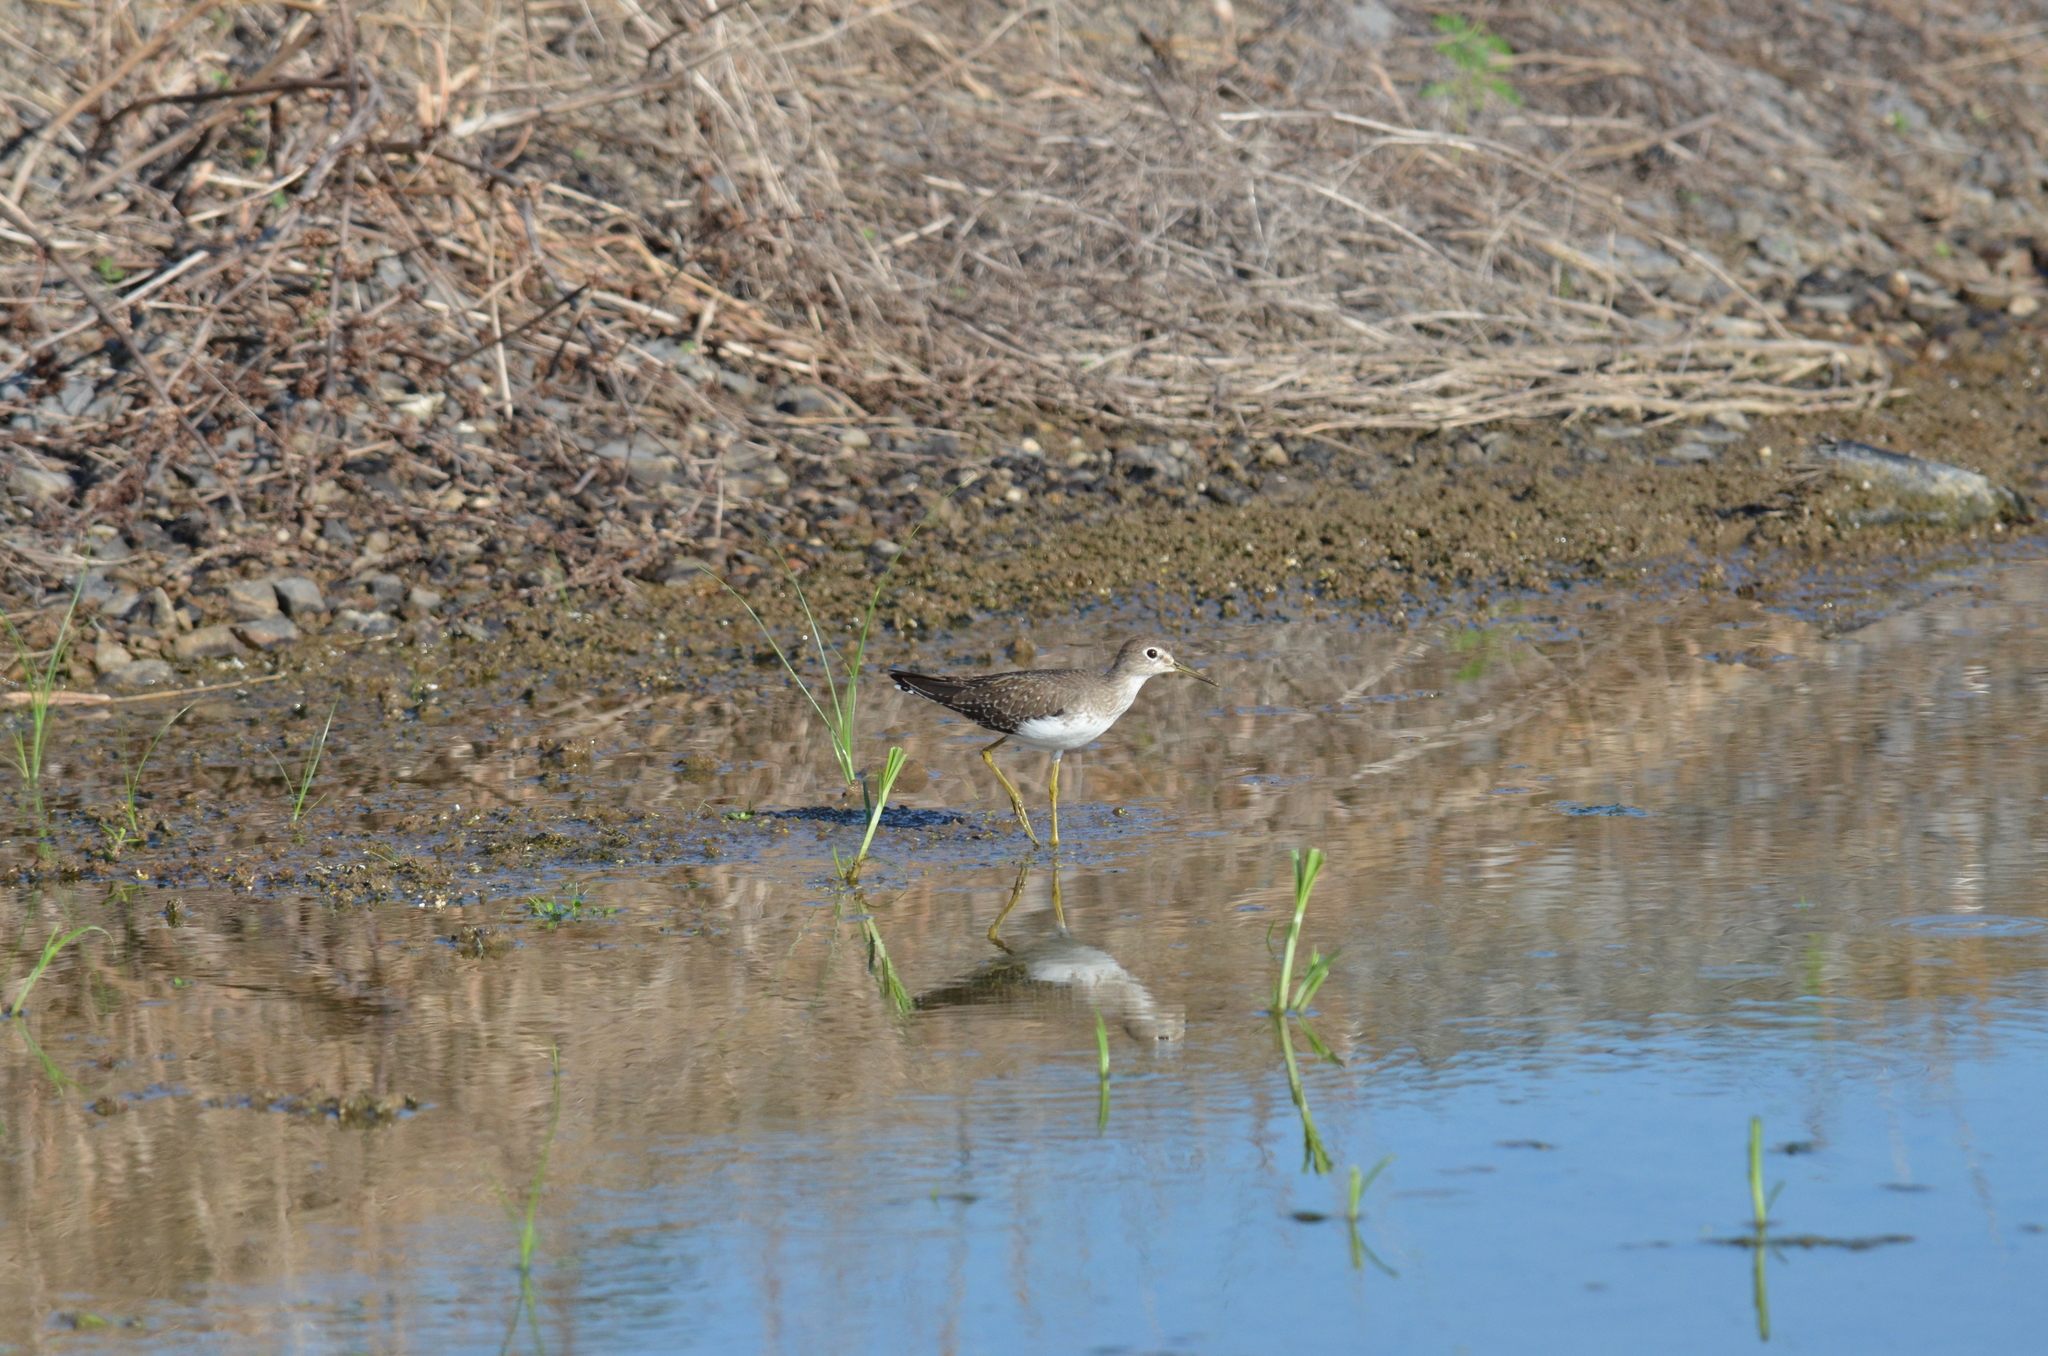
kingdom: Animalia
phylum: Chordata
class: Aves
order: Charadriiformes
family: Scolopacidae
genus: Tringa
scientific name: Tringa solitaria
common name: Solitary sandpiper
